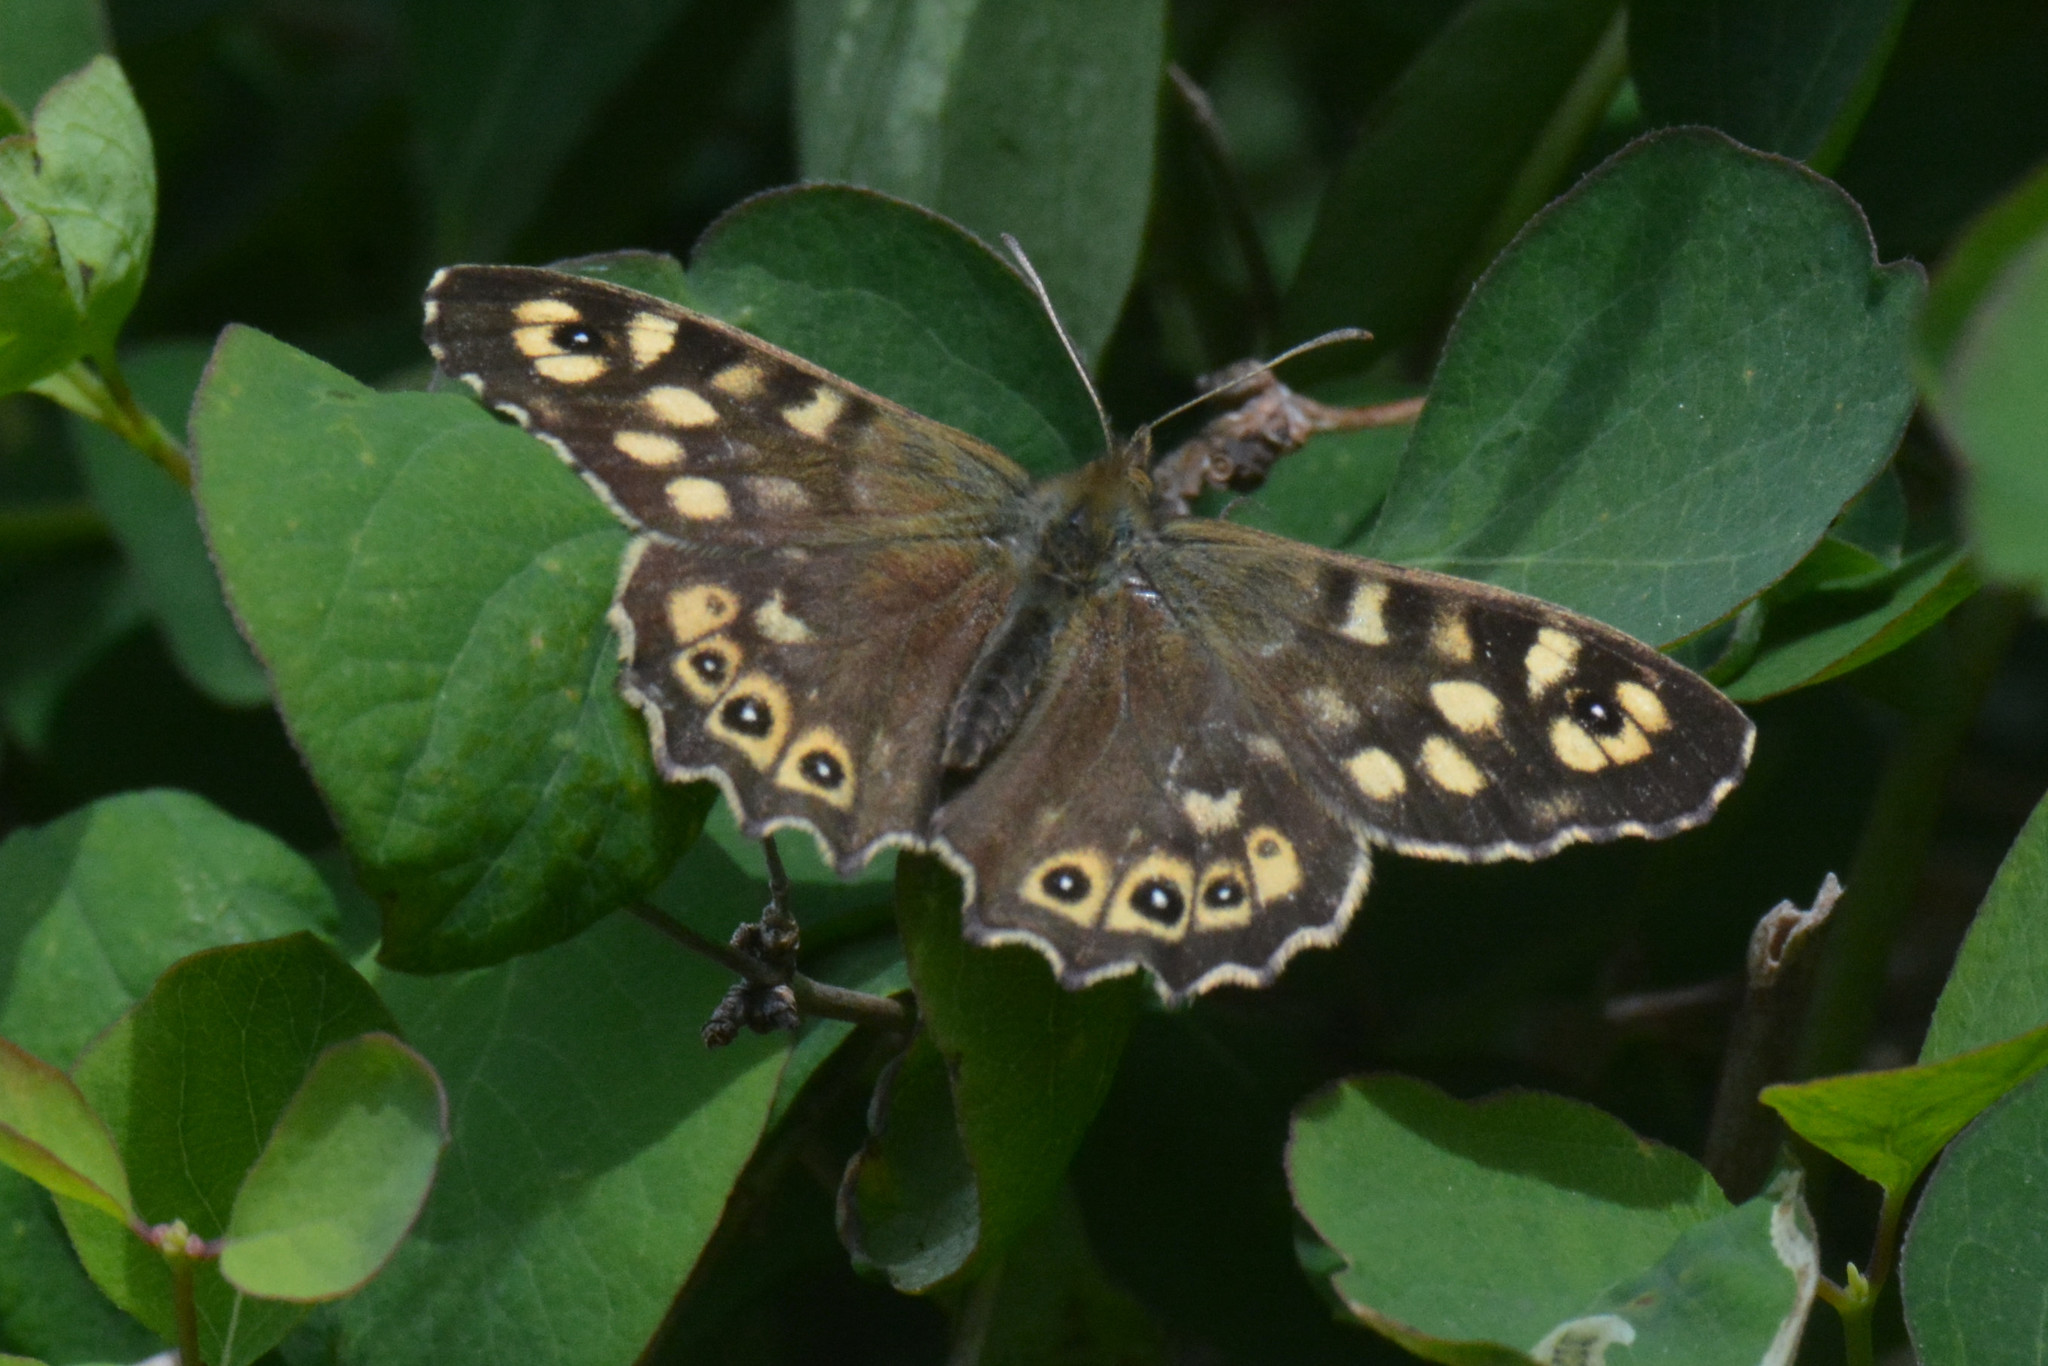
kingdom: Animalia
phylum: Arthropoda
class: Insecta
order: Lepidoptera
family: Nymphalidae
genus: Pararge
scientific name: Pararge aegeria
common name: Speckled wood
